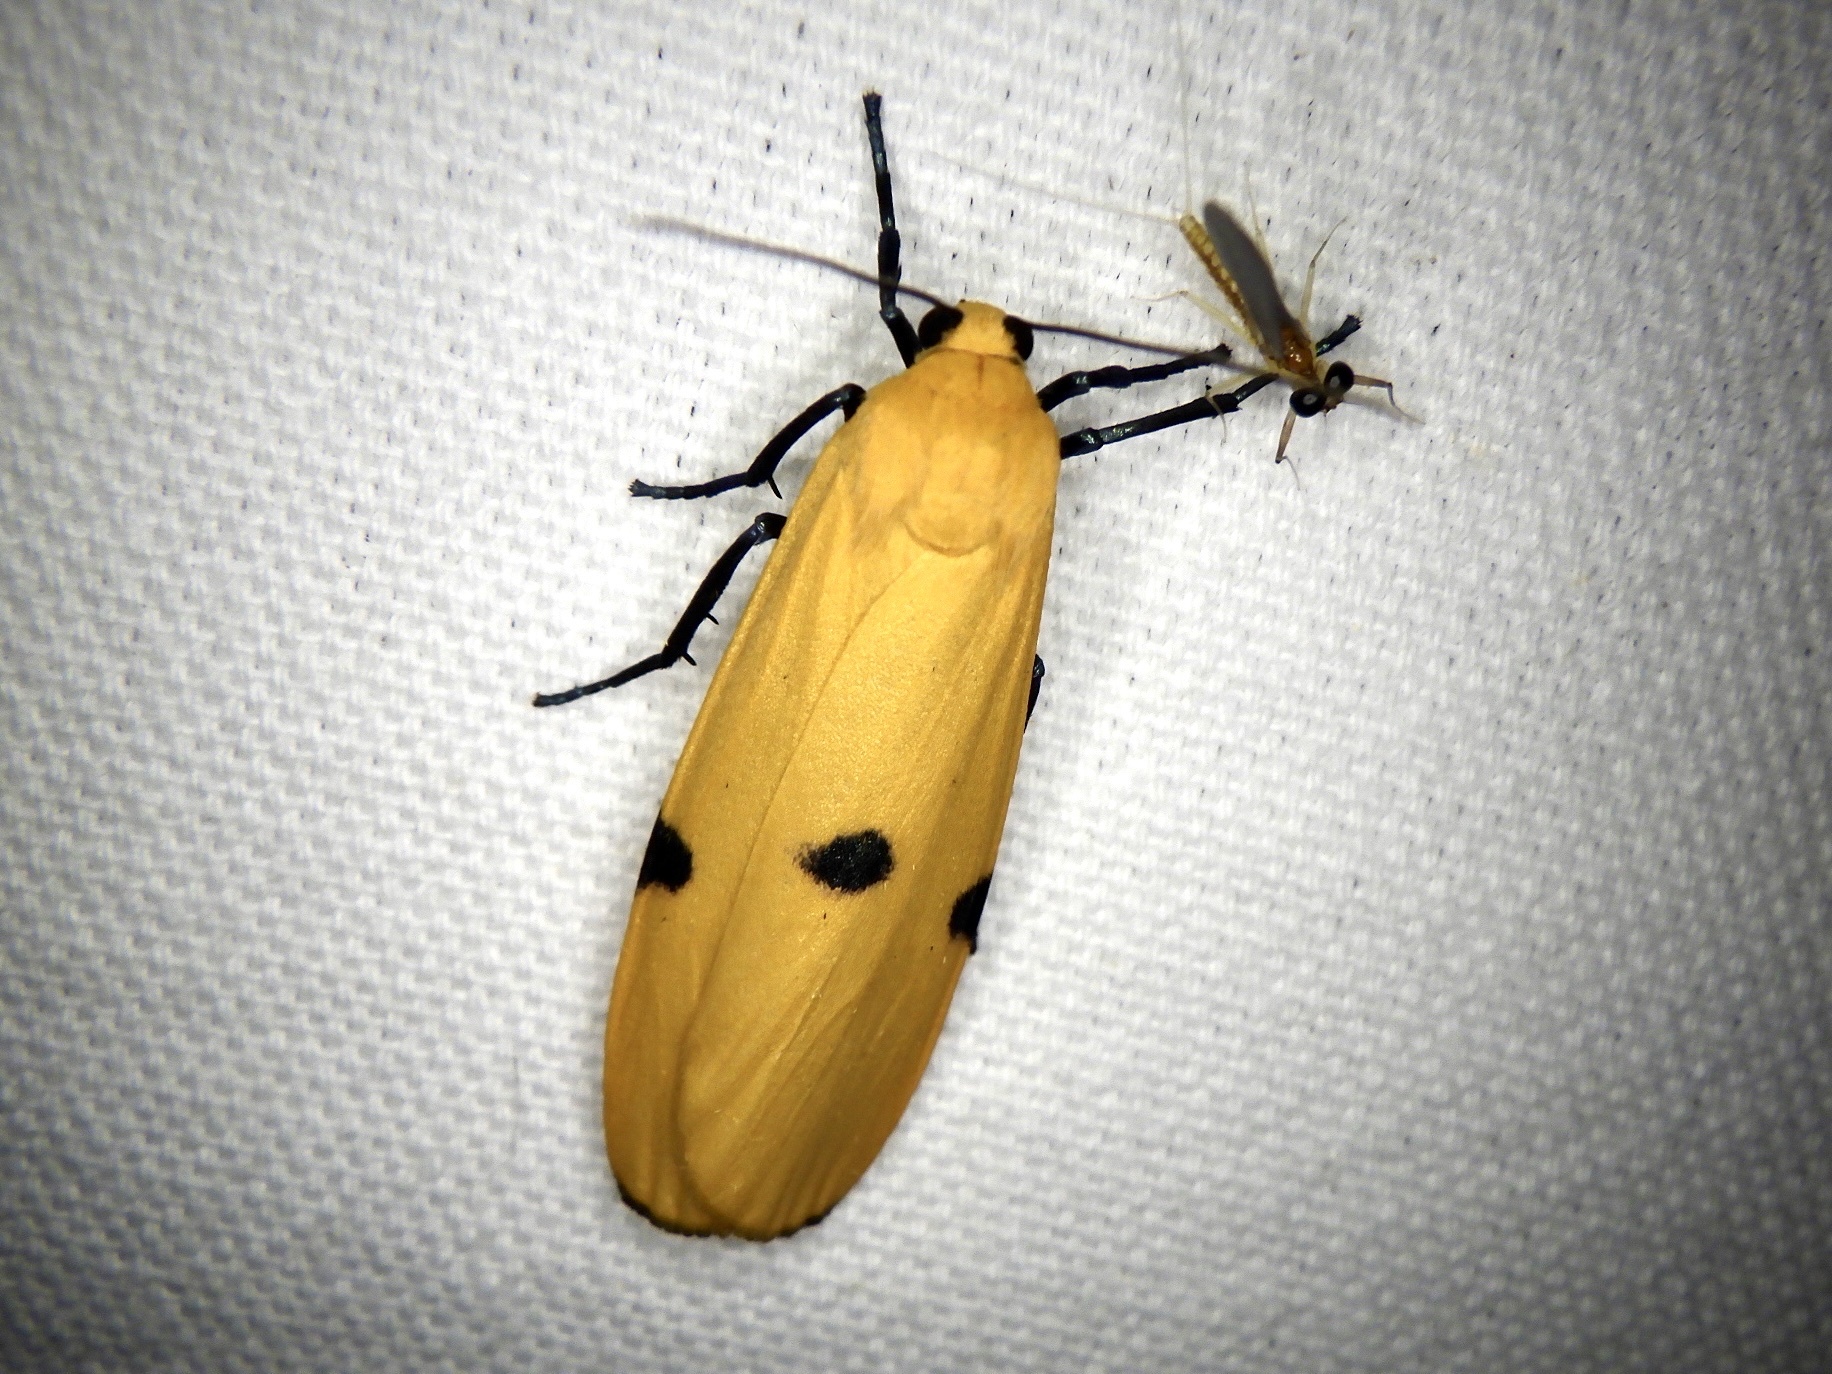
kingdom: Animalia
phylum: Arthropoda
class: Insecta
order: Lepidoptera
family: Erebidae
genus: Lithosia
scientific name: Lithosia quadra
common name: Four-spotted footman
